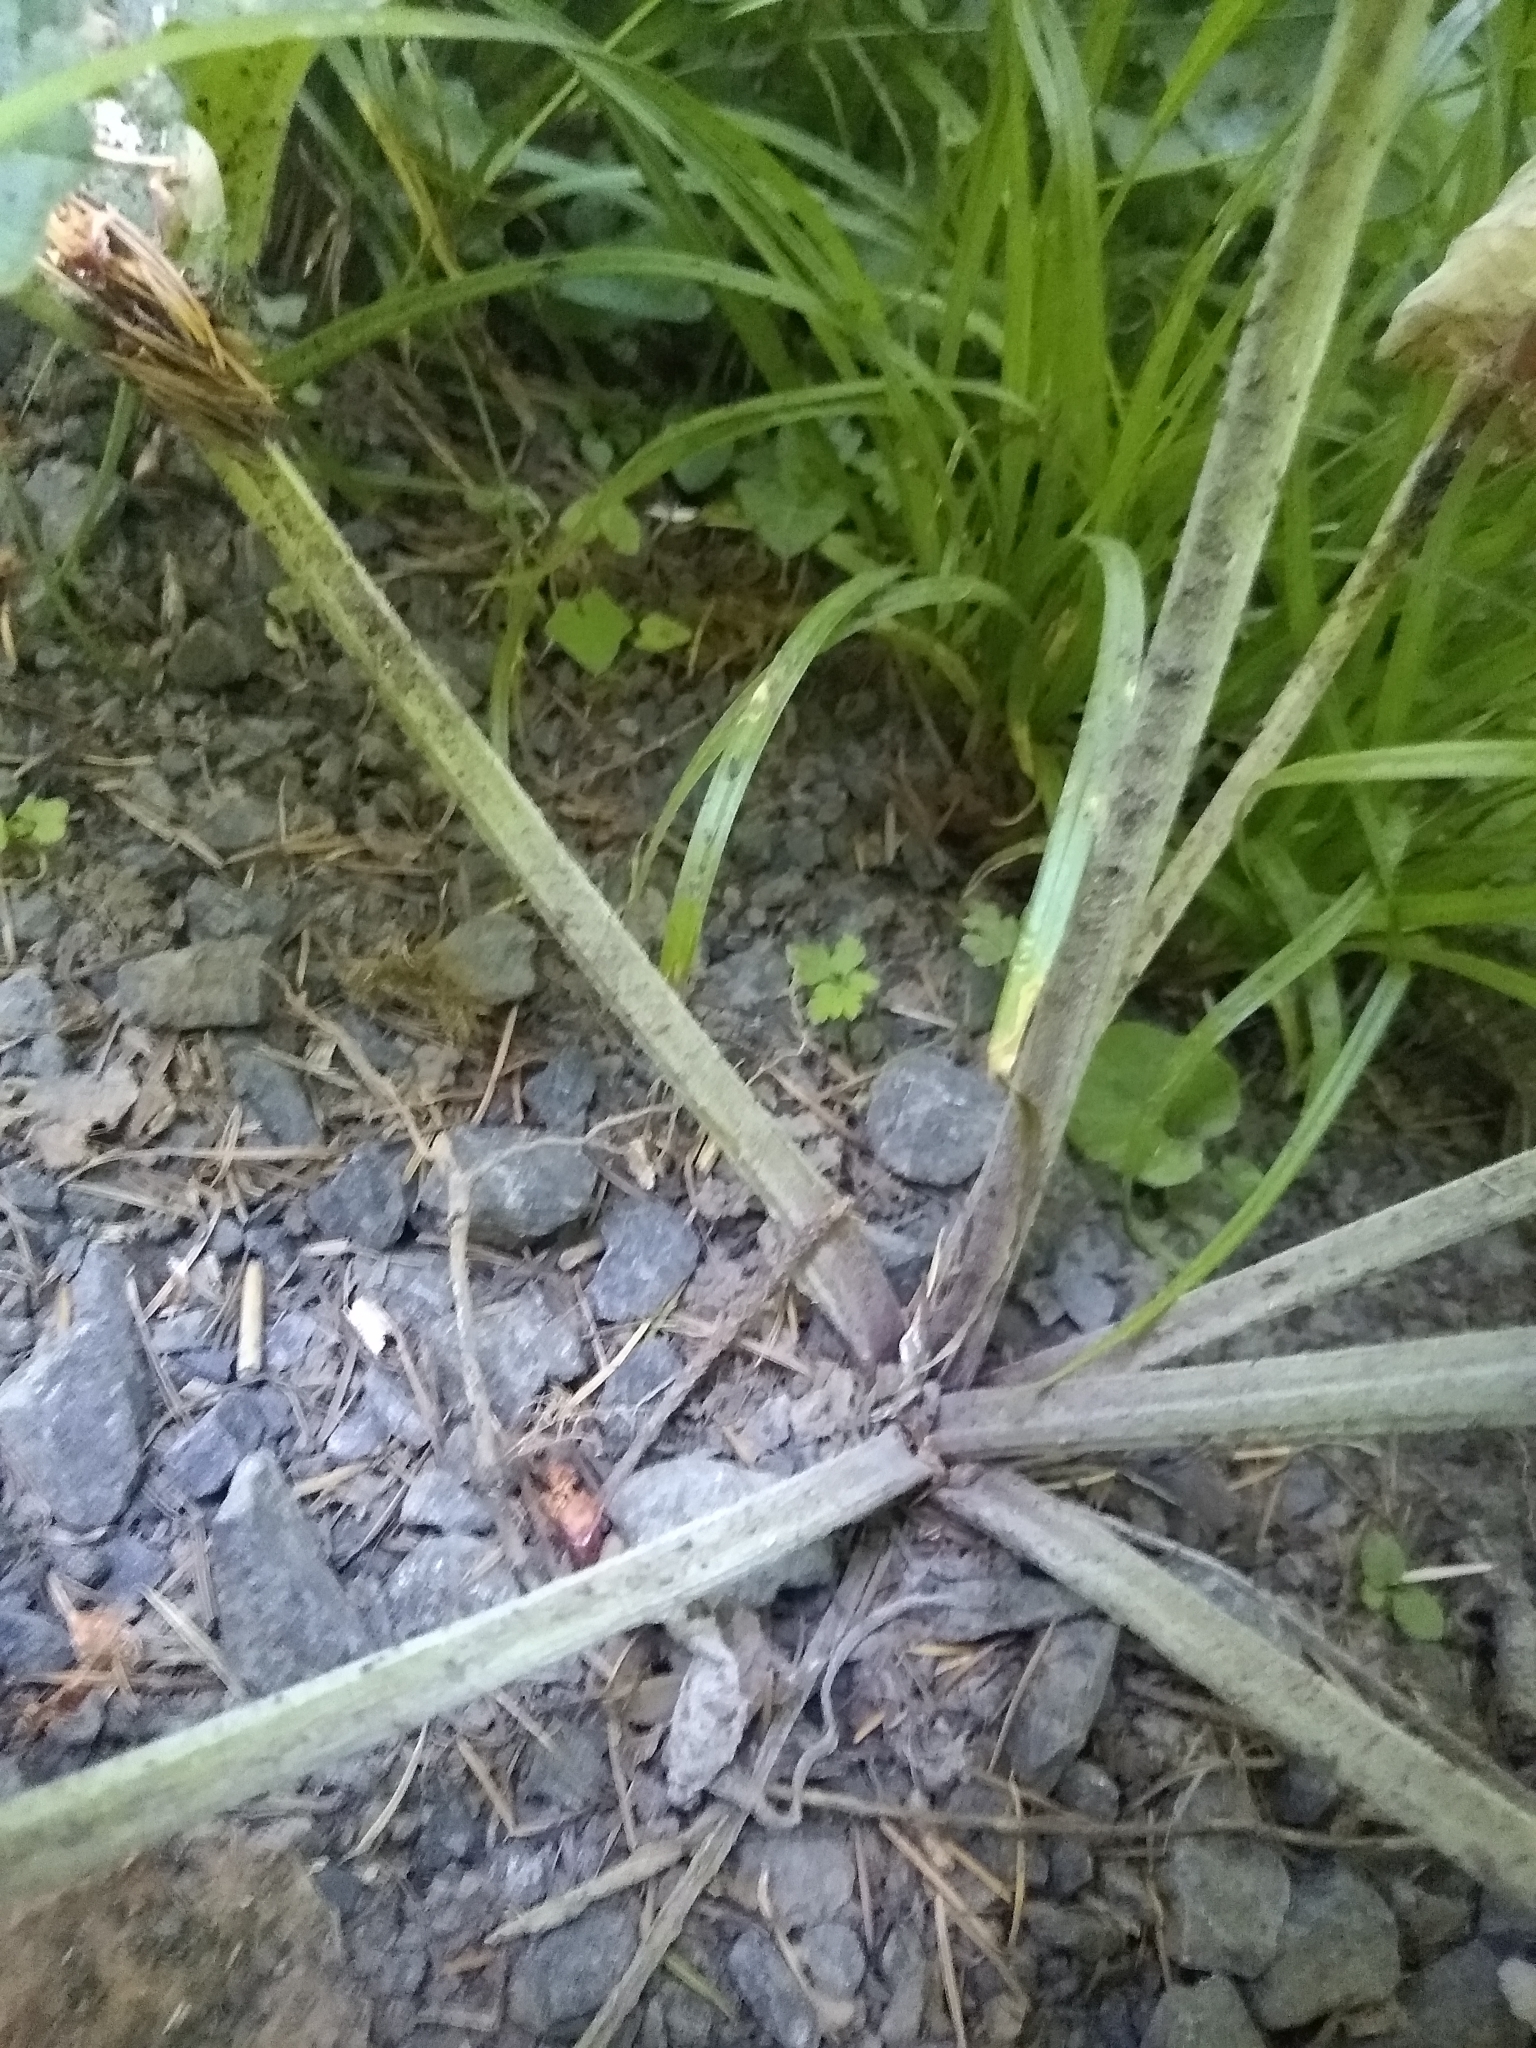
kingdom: Plantae
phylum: Tracheophyta
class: Magnoliopsida
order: Asterales
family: Asteraceae
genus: Arctium
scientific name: Arctium
